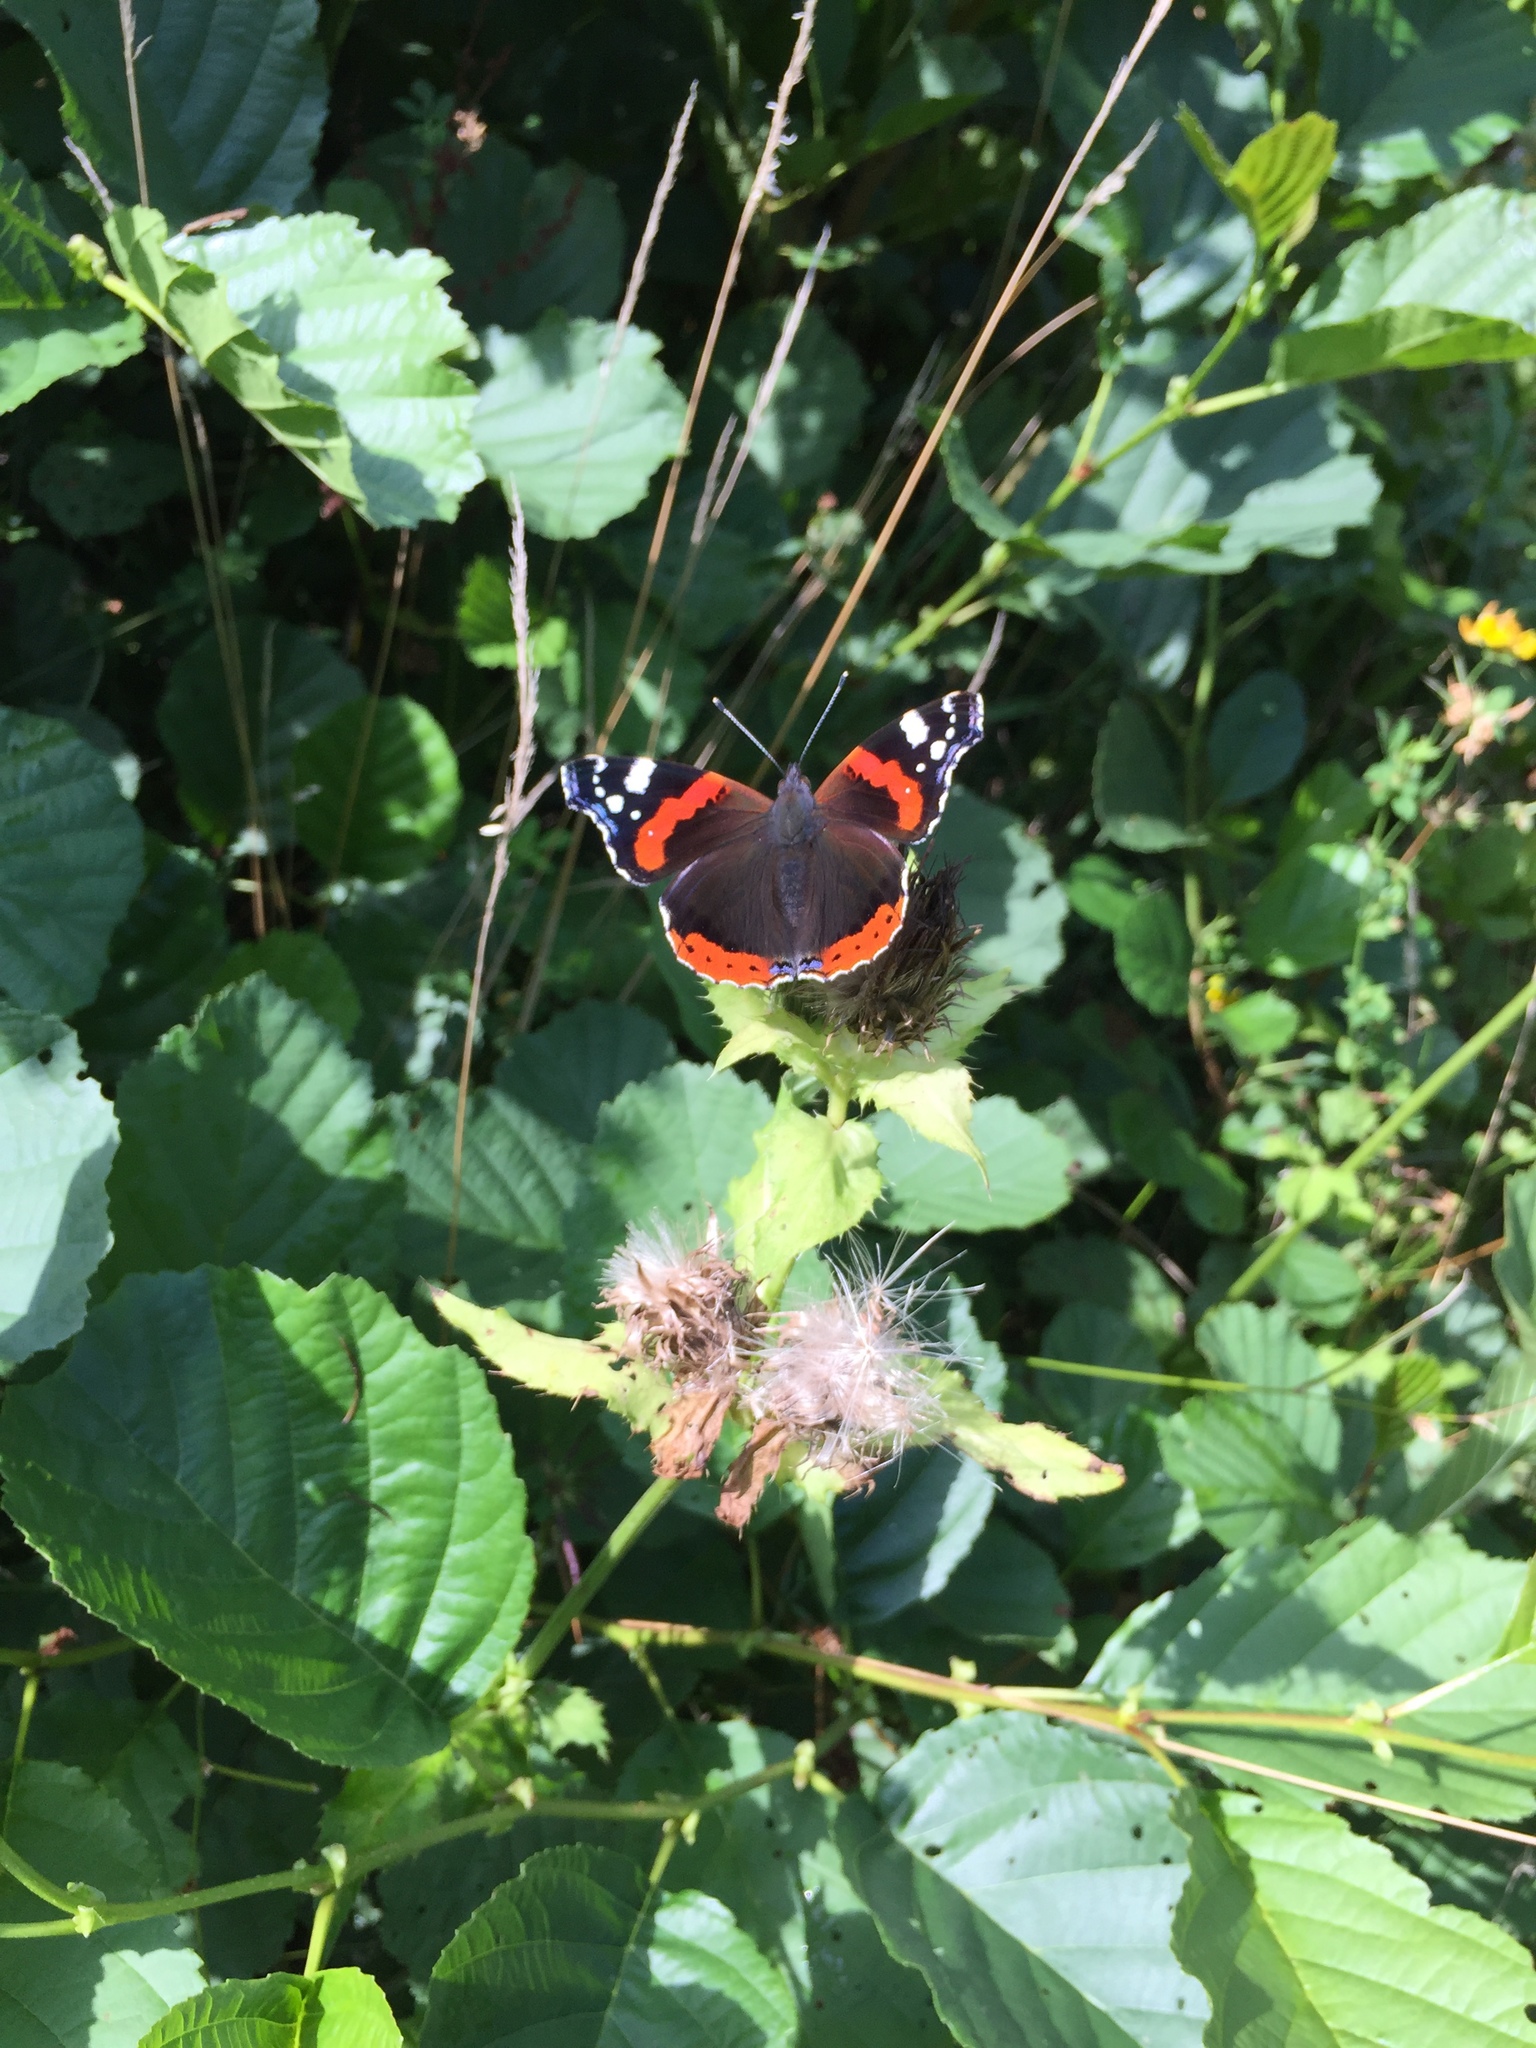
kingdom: Animalia
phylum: Arthropoda
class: Insecta
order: Lepidoptera
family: Nymphalidae
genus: Vanessa
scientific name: Vanessa atalanta
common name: Red admiral
